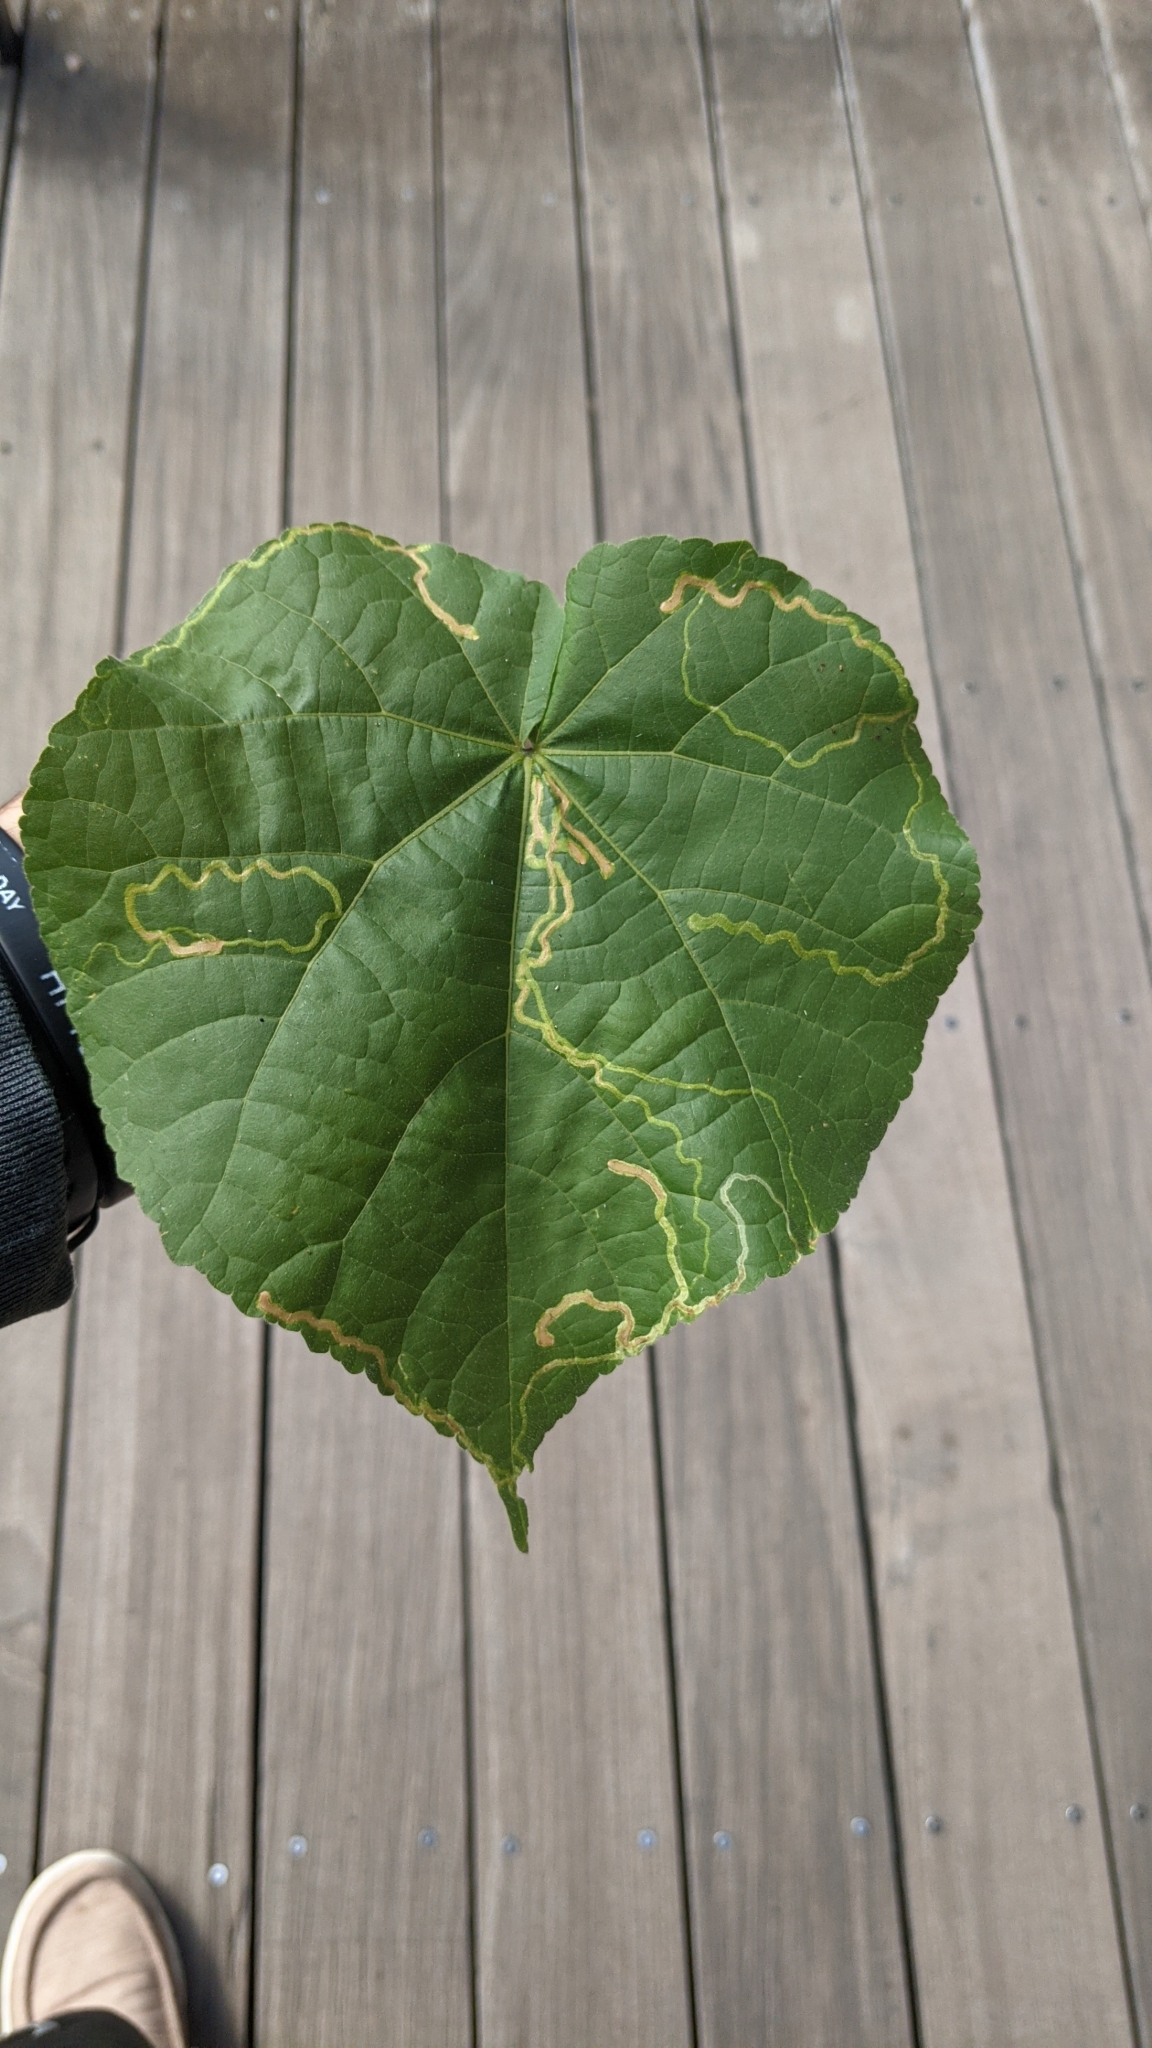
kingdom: Animalia
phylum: Arthropoda
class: Insecta
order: Diptera
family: Agromyzidae
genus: Calycomyza
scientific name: Calycomyza malvae
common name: Mallow leaf miner
